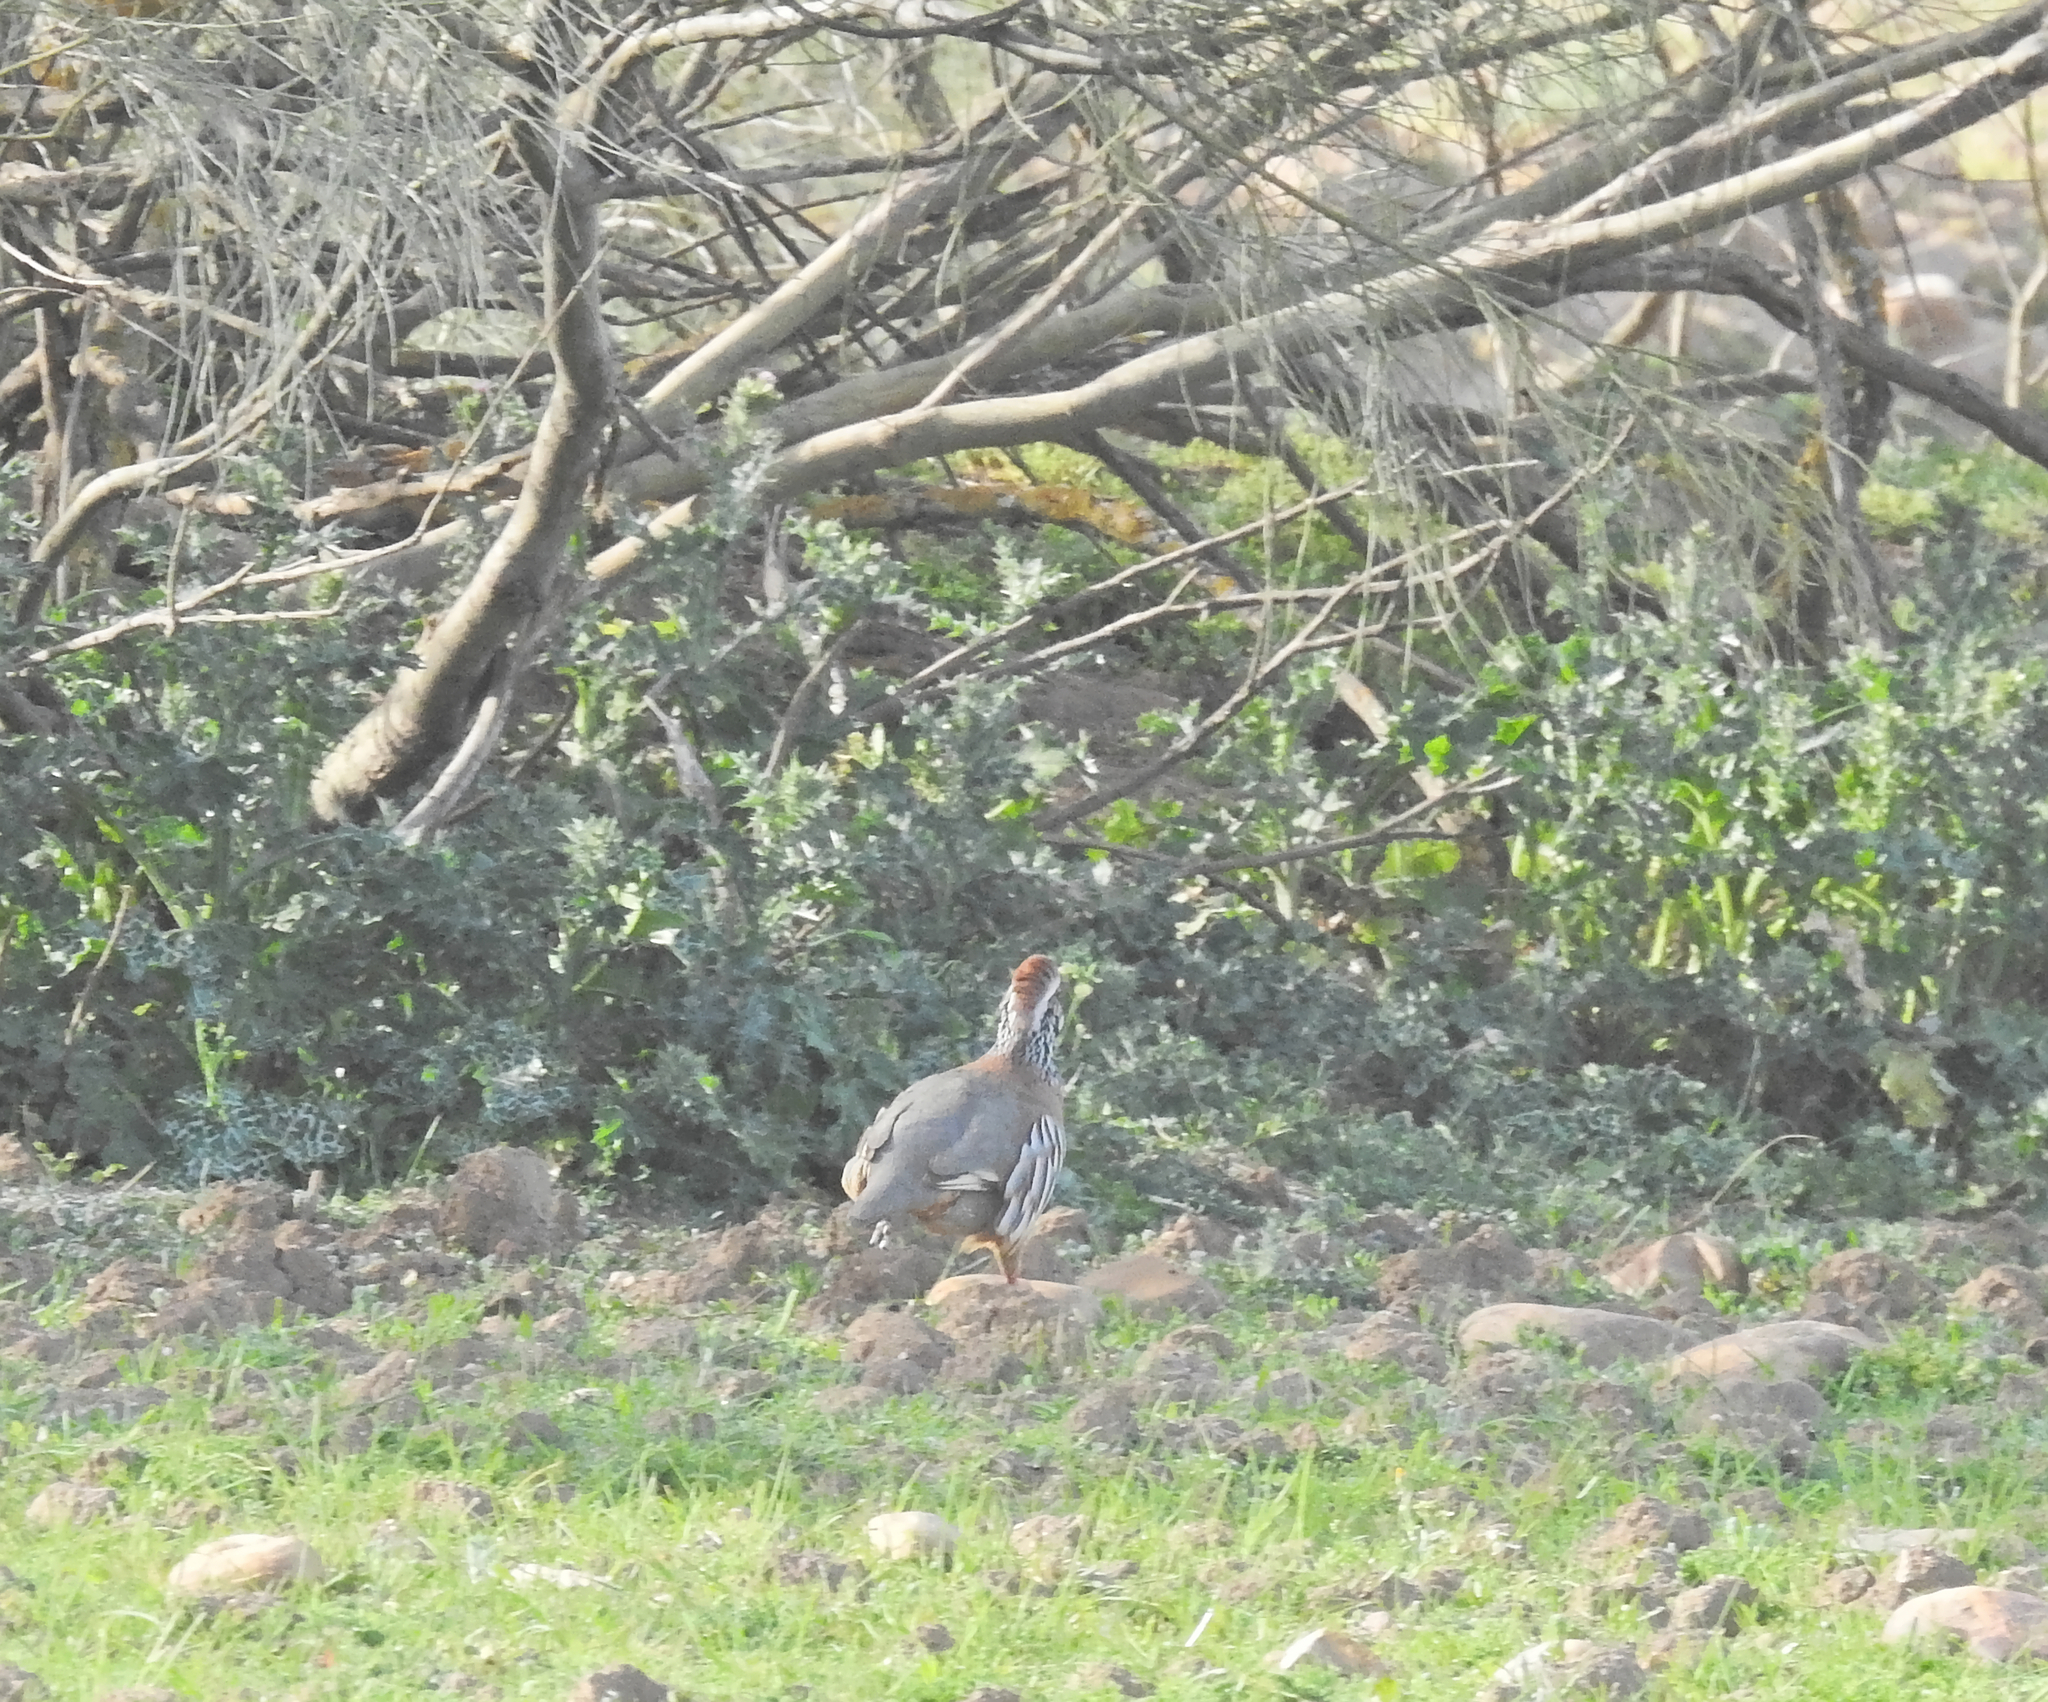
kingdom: Animalia
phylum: Chordata
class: Aves
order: Galliformes
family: Phasianidae
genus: Alectoris
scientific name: Alectoris rufa
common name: Red-legged partridge
